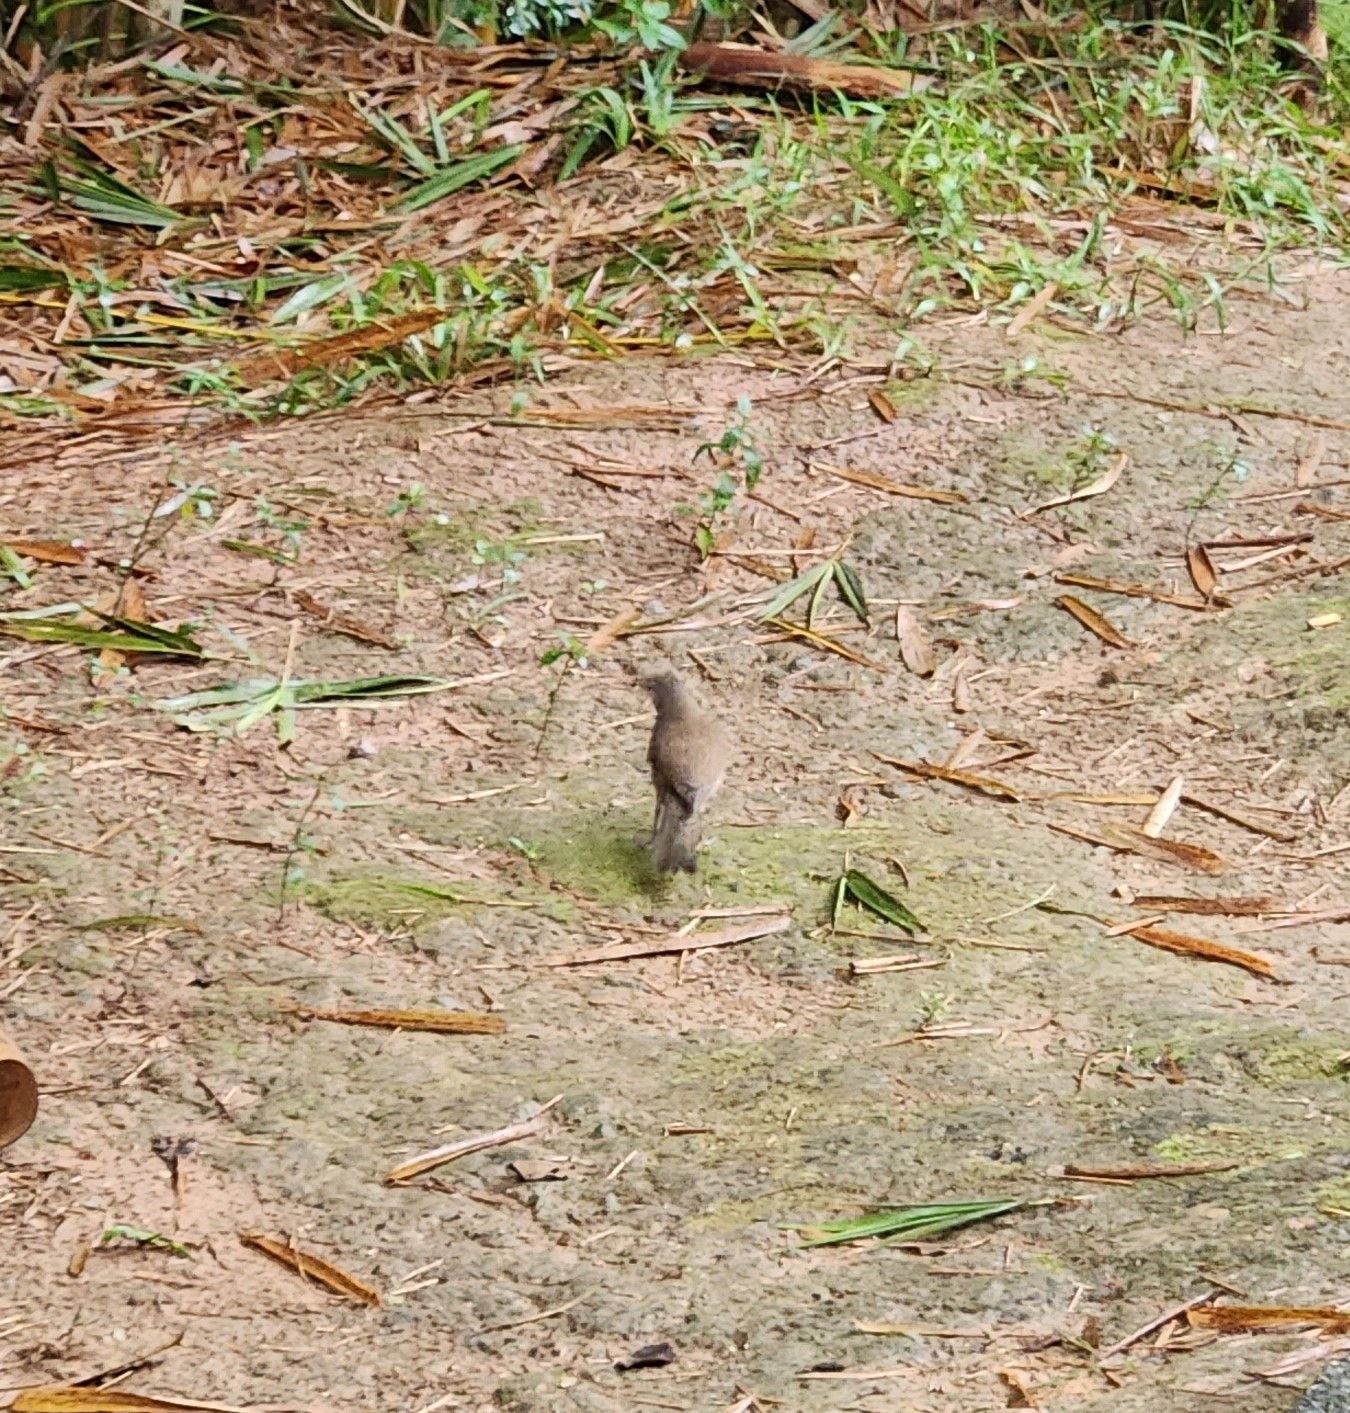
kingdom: Animalia
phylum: Chordata
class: Aves
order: Passeriformes
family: Turdidae
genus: Turdus
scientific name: Turdus leucomelas
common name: Pale-breasted thrush
